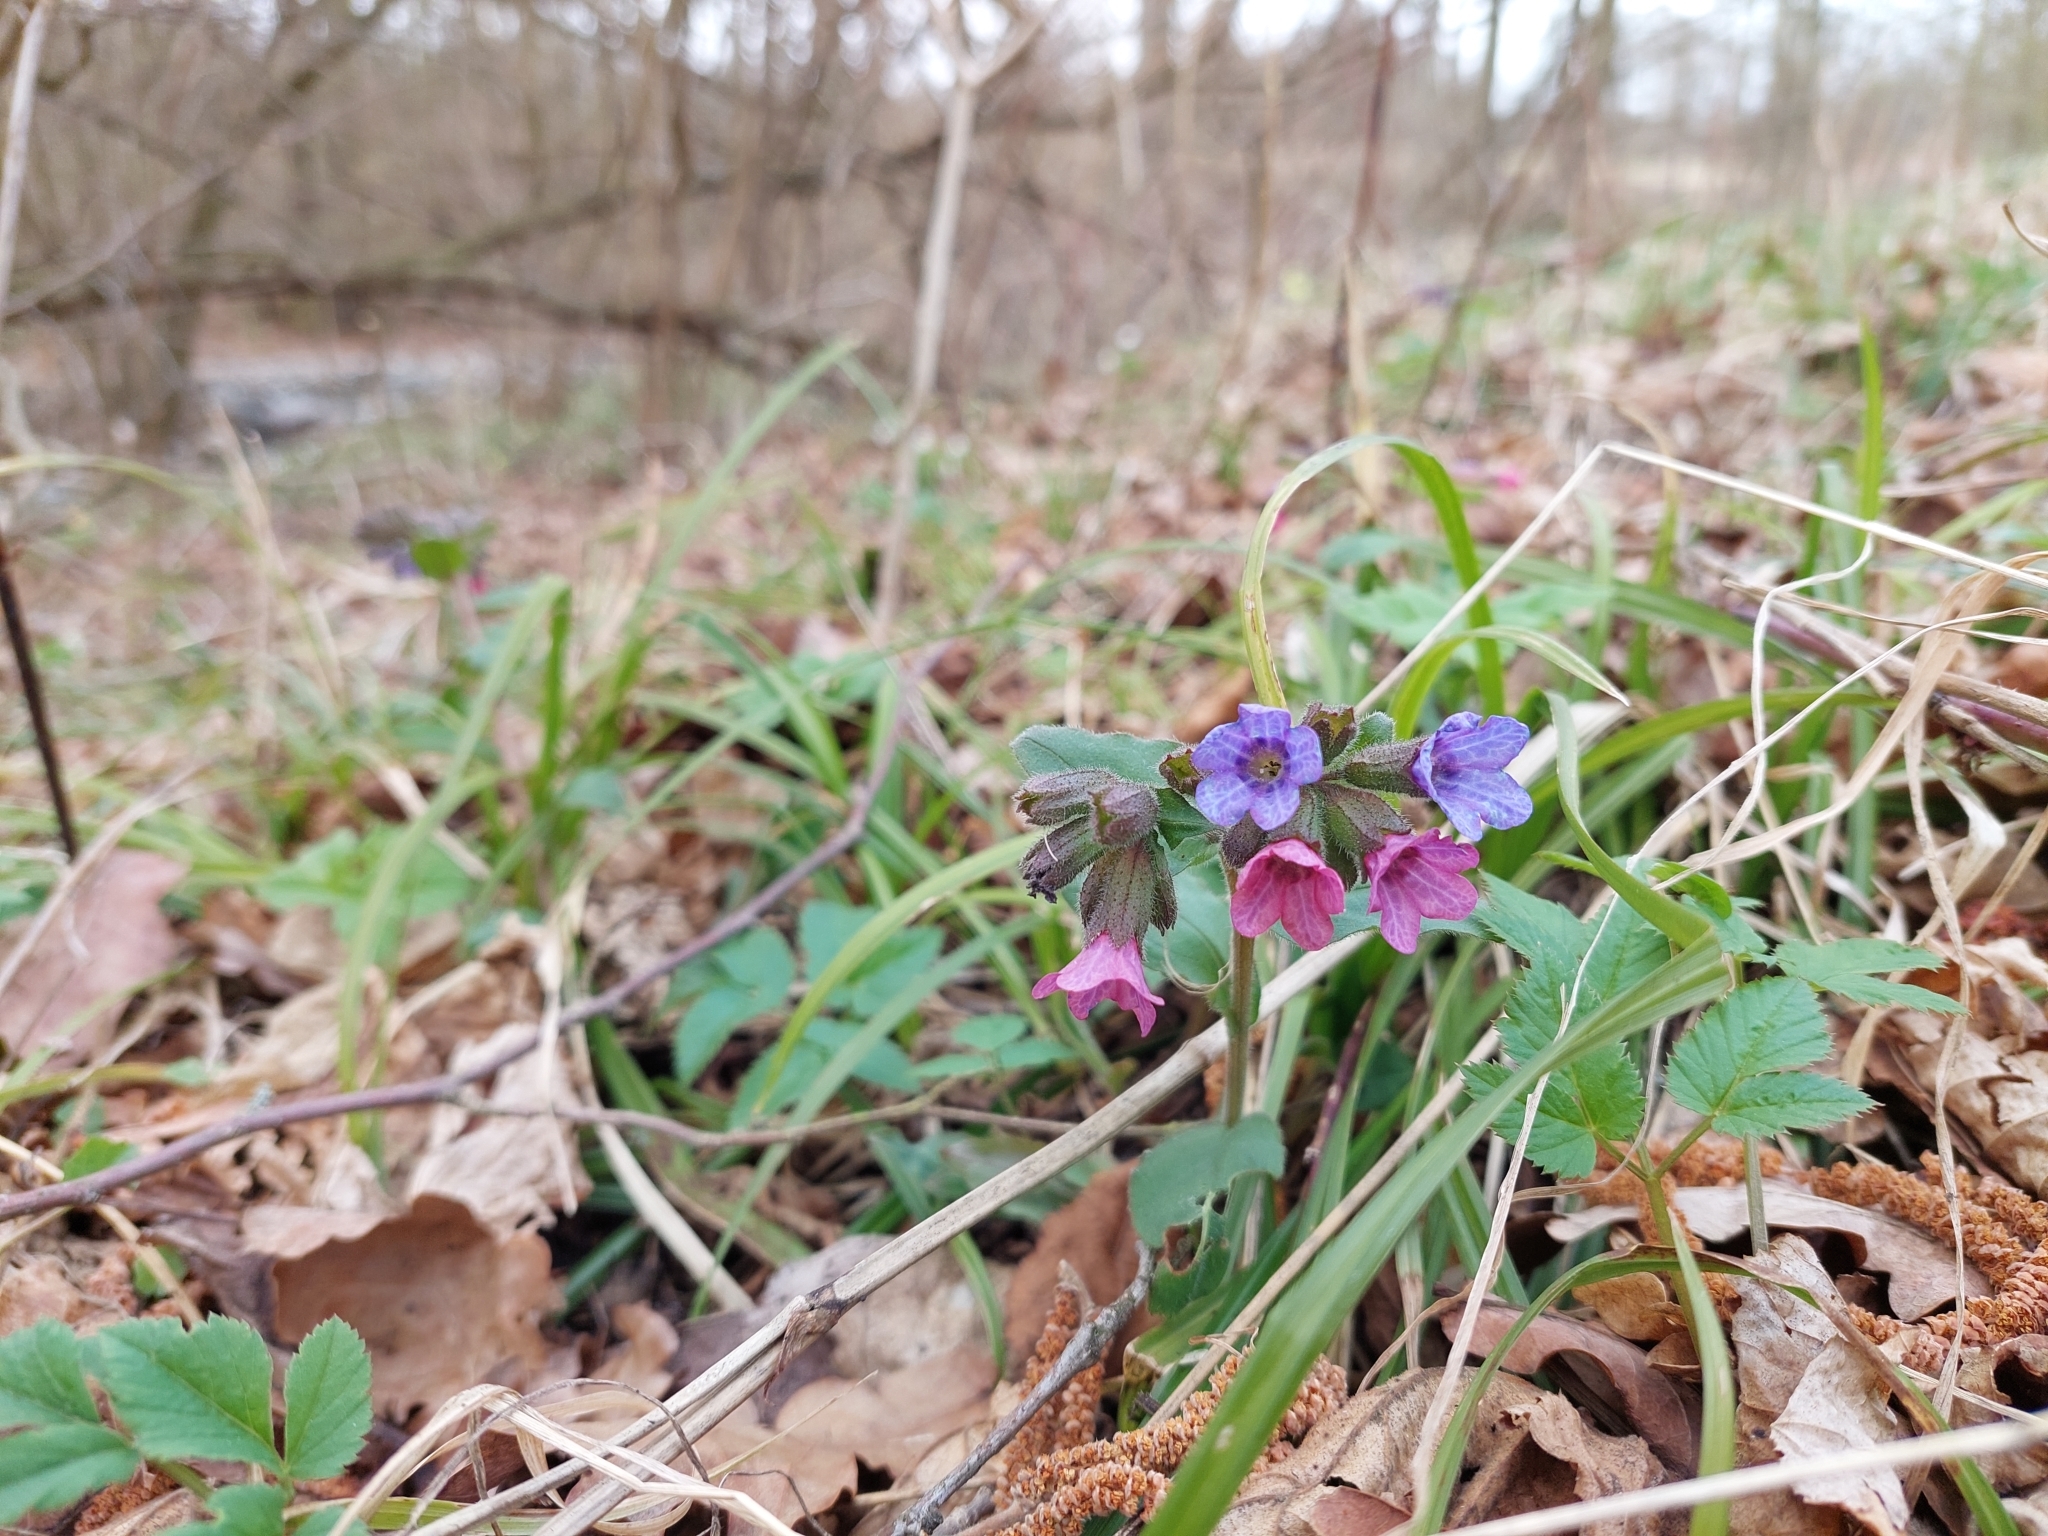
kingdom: Plantae
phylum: Tracheophyta
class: Magnoliopsida
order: Boraginales
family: Boraginaceae
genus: Pulmonaria
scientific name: Pulmonaria obscura
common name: Suffolk lungwort
